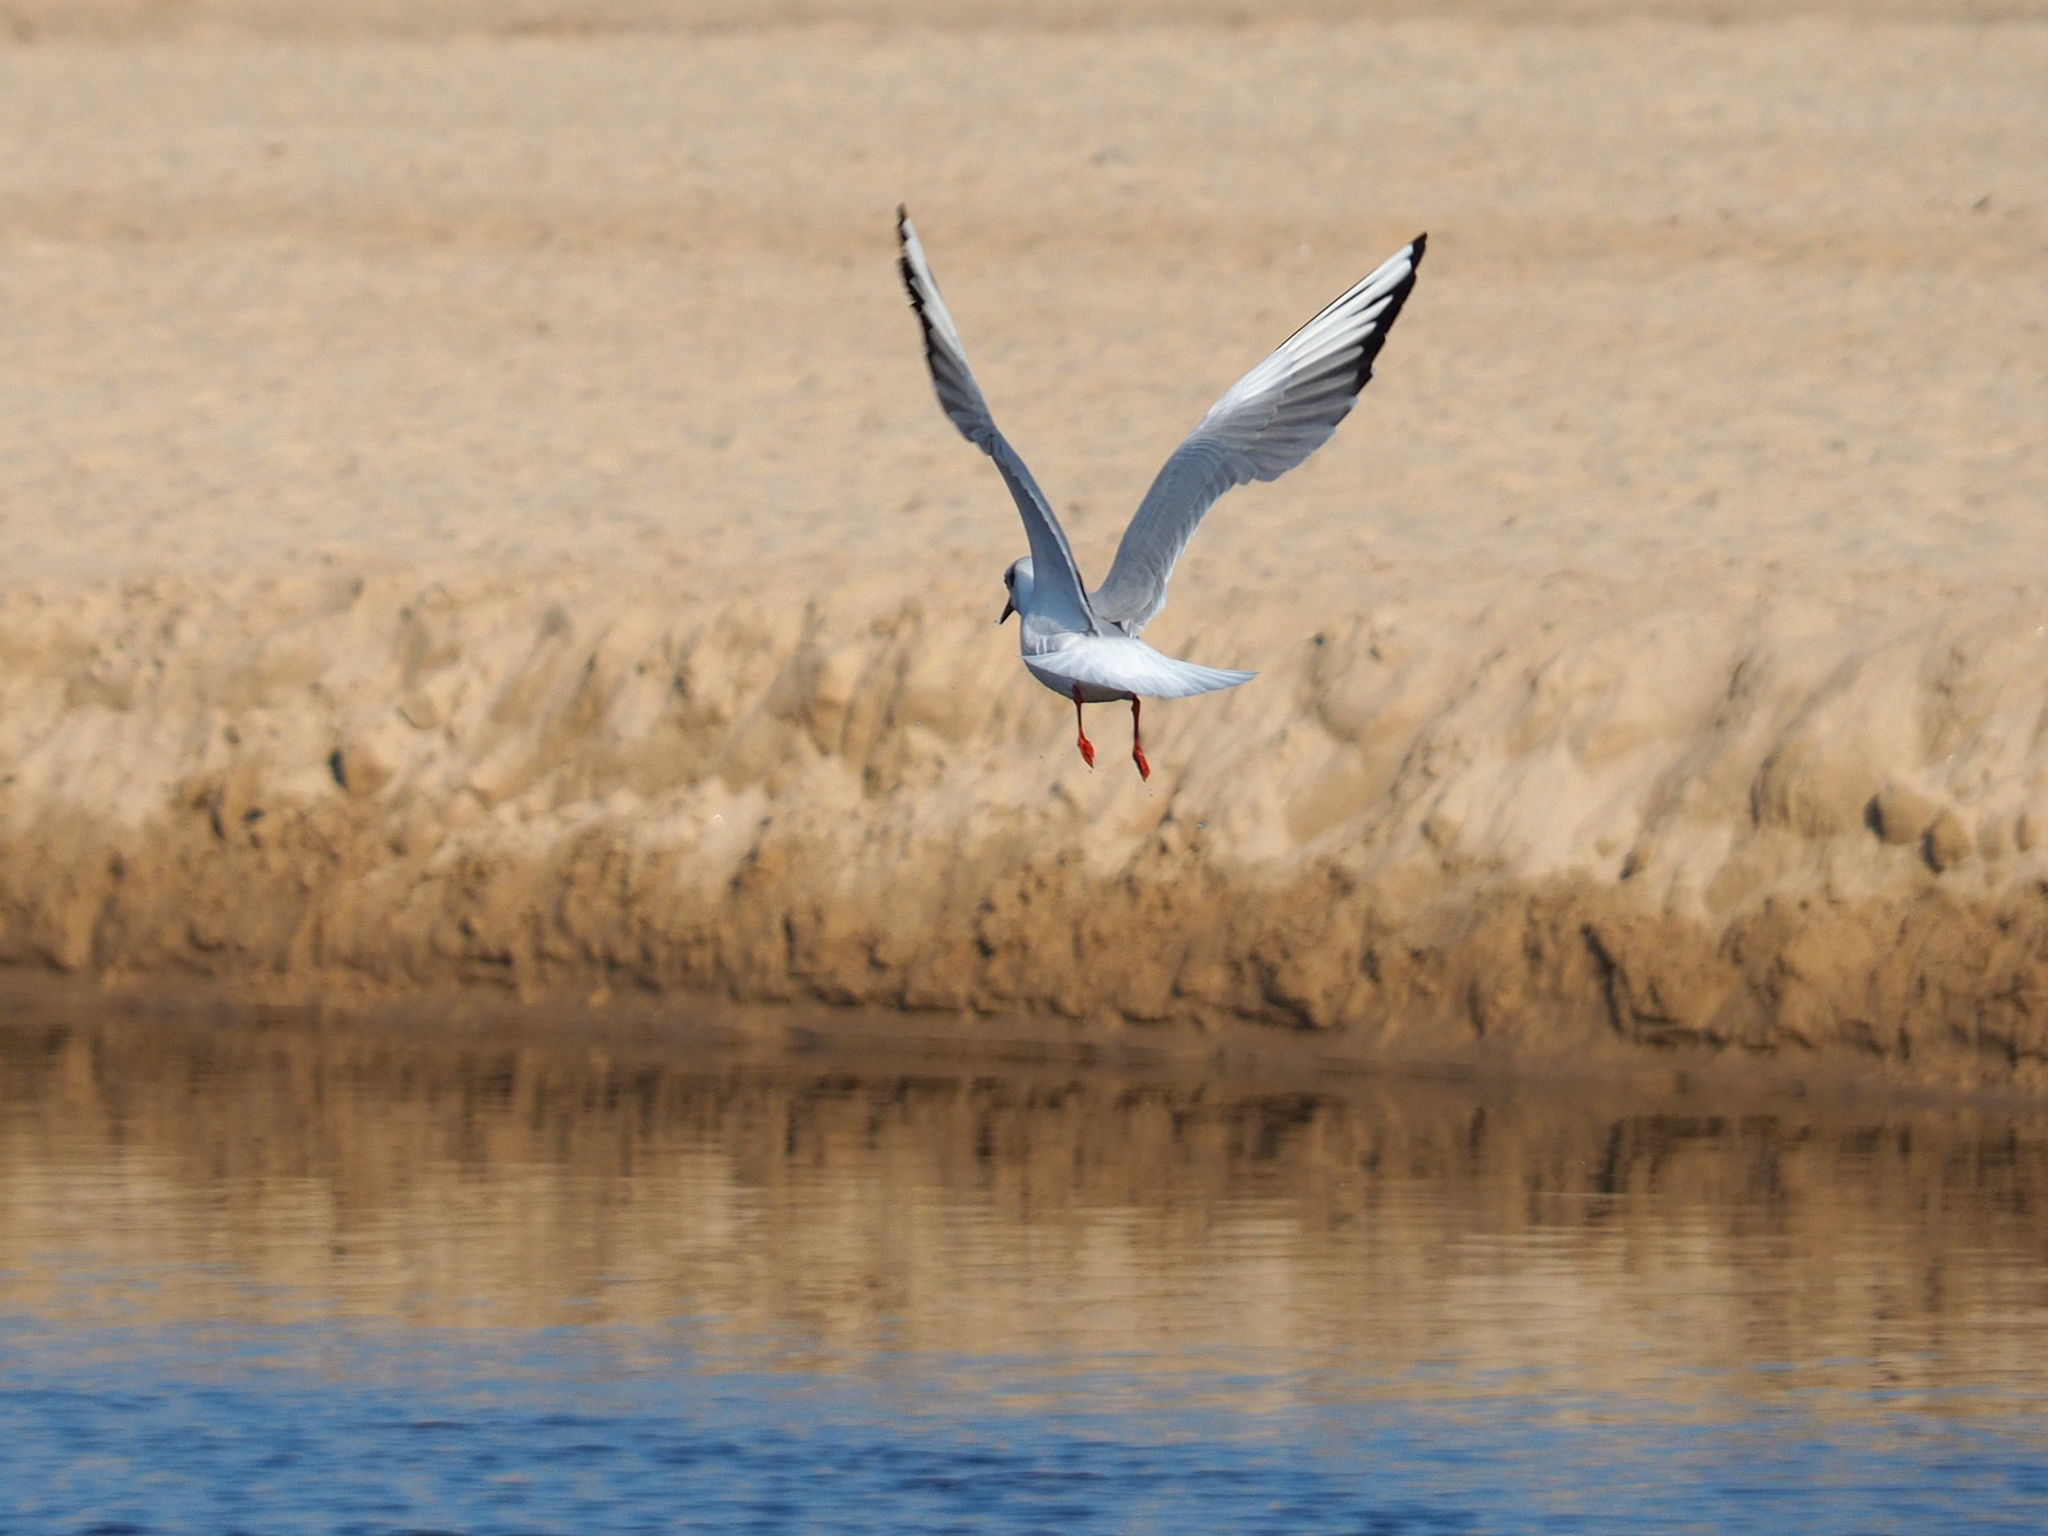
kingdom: Animalia
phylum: Chordata
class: Aves
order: Charadriiformes
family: Laridae
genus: Chroicocephalus
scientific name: Chroicocephalus ridibundus
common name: Black-headed gull
